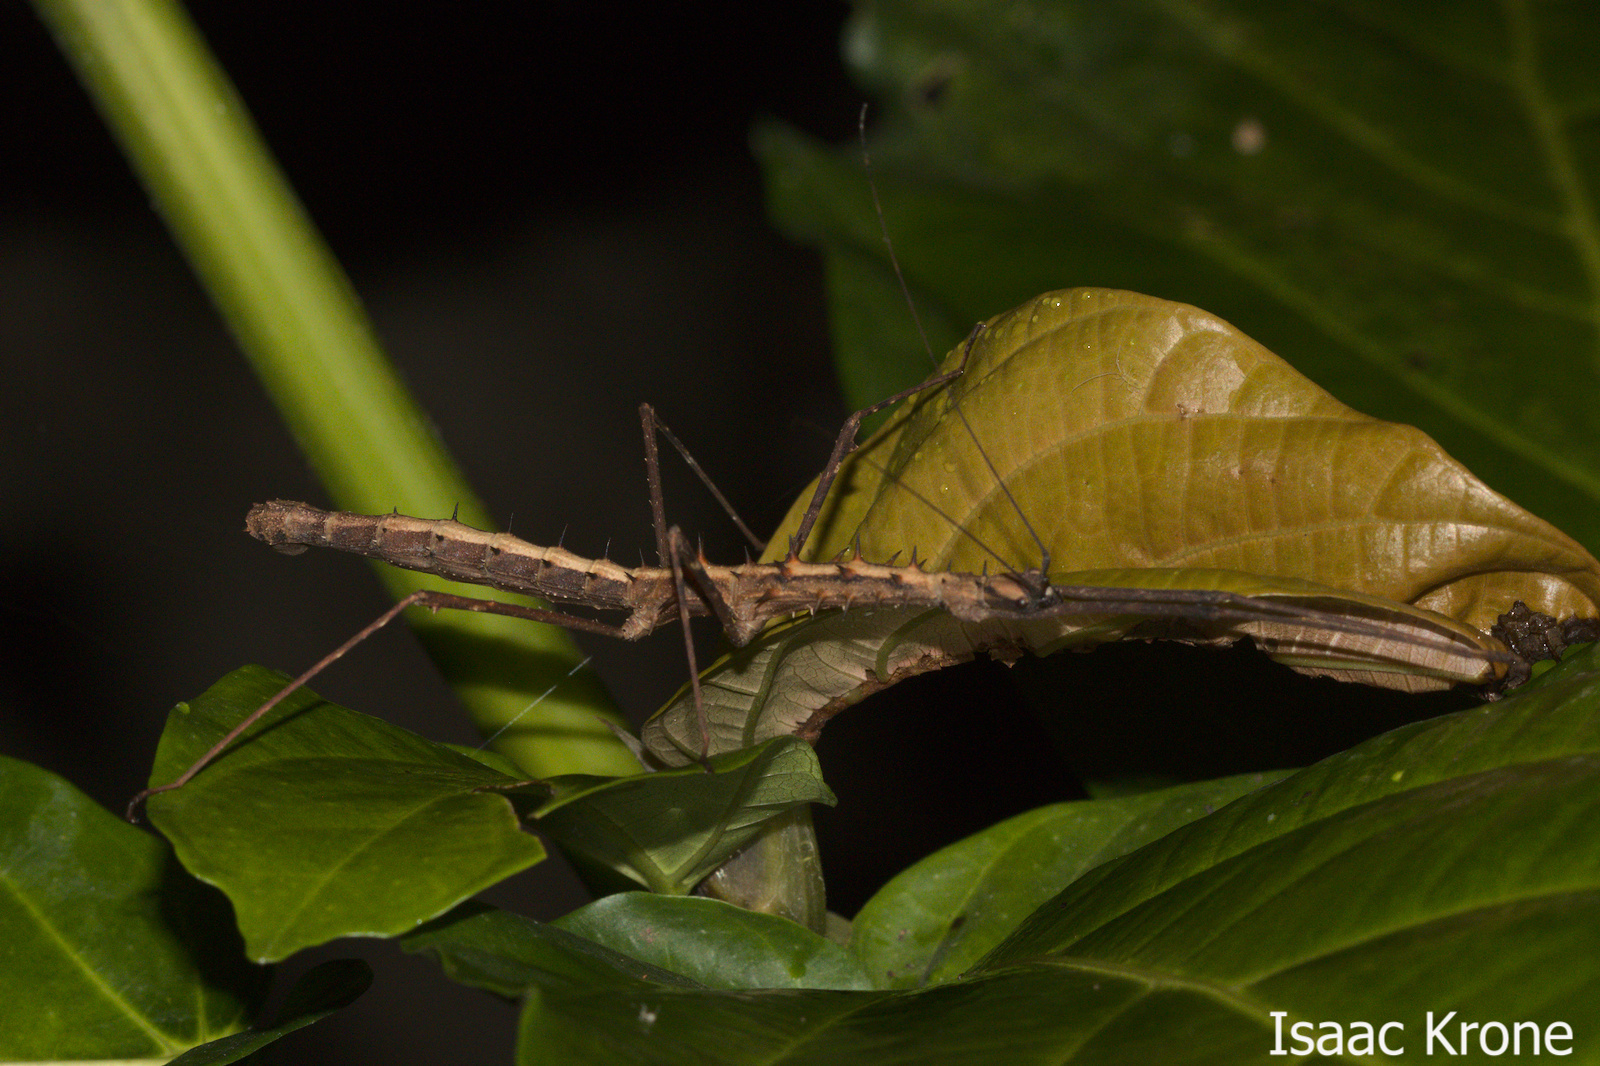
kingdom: Animalia
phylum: Arthropoda
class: Insecta
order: Phasmida
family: Lonchodidae
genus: Acanthomenexenus
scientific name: Acanthomenexenus polyacanthus
